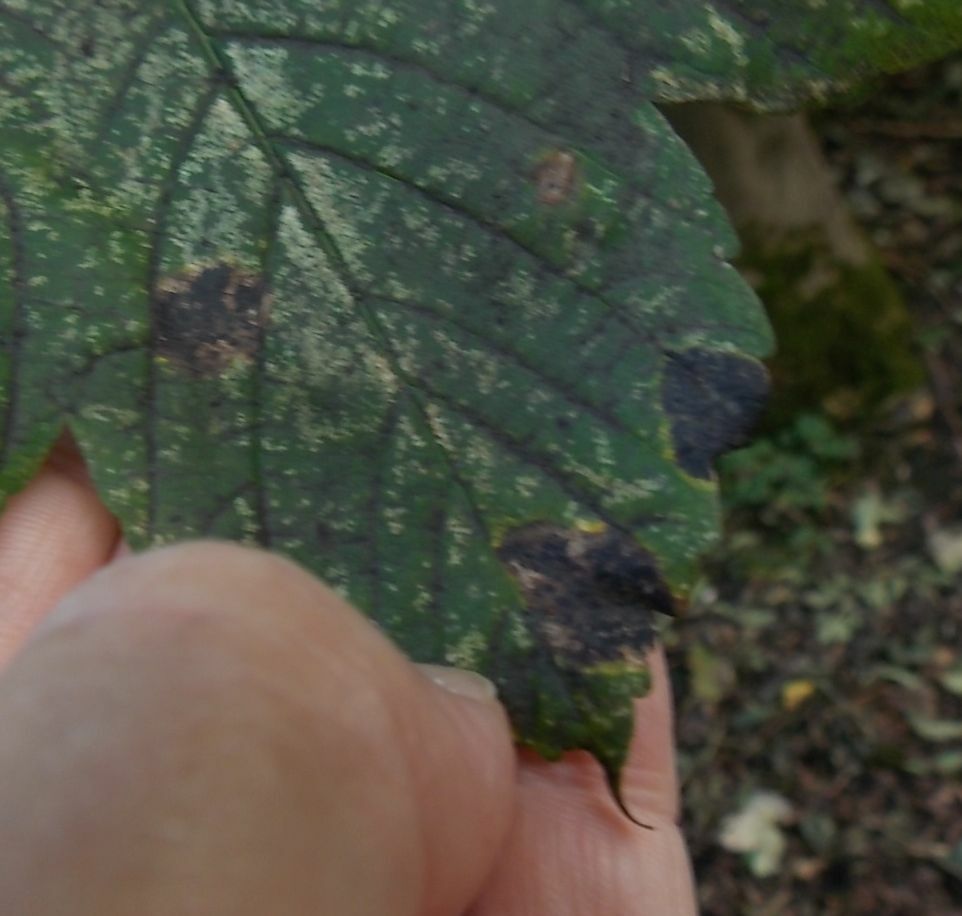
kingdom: Fungi
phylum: Ascomycota
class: Leotiomycetes
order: Rhytismatales
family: Rhytismataceae
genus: Rhytisma
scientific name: Rhytisma acerinum
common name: European tar spot
